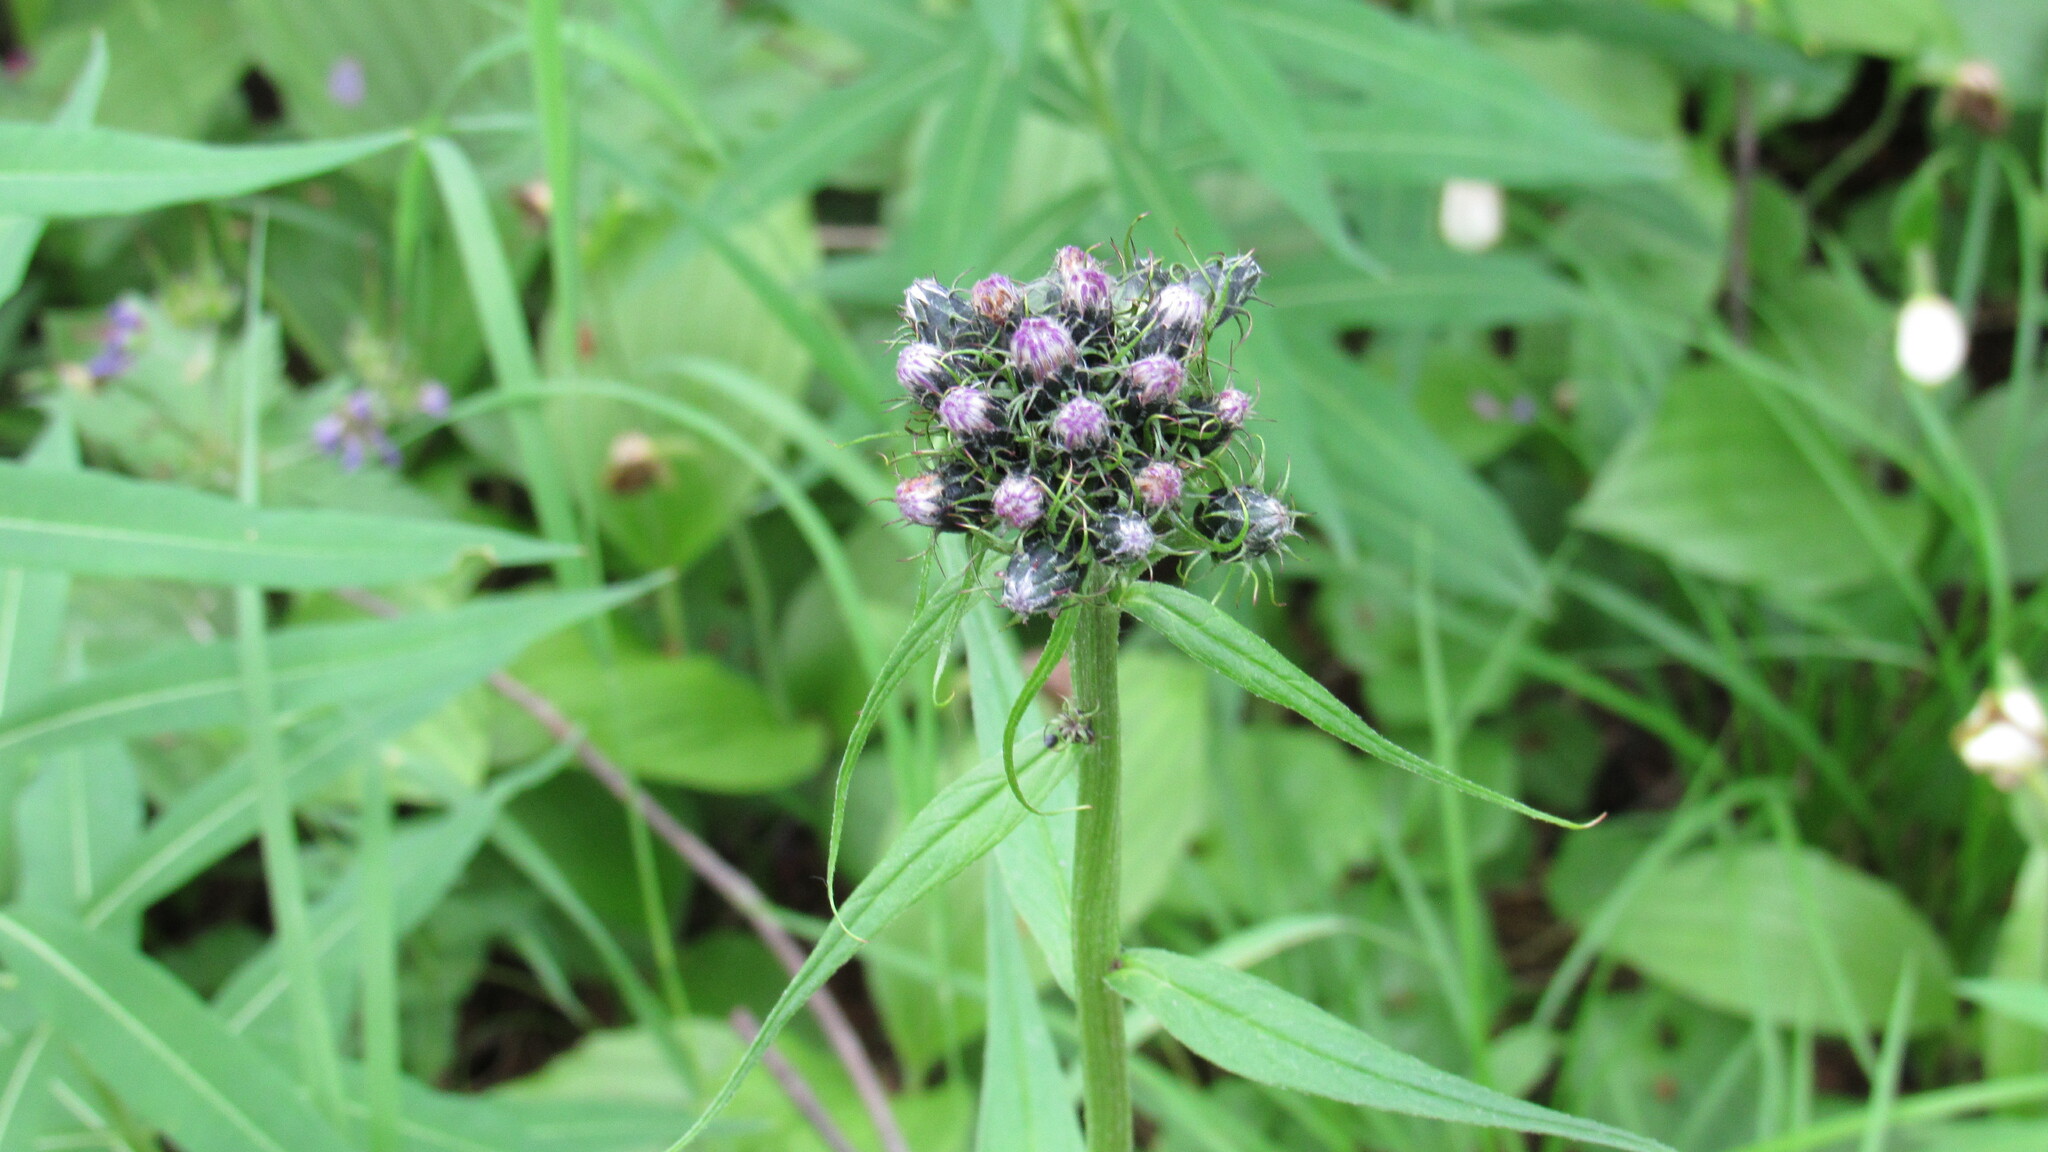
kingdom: Plantae
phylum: Tracheophyta
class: Magnoliopsida
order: Asterales
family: Asteraceae
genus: Saussurea
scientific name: Saussurea pseudotilesii
